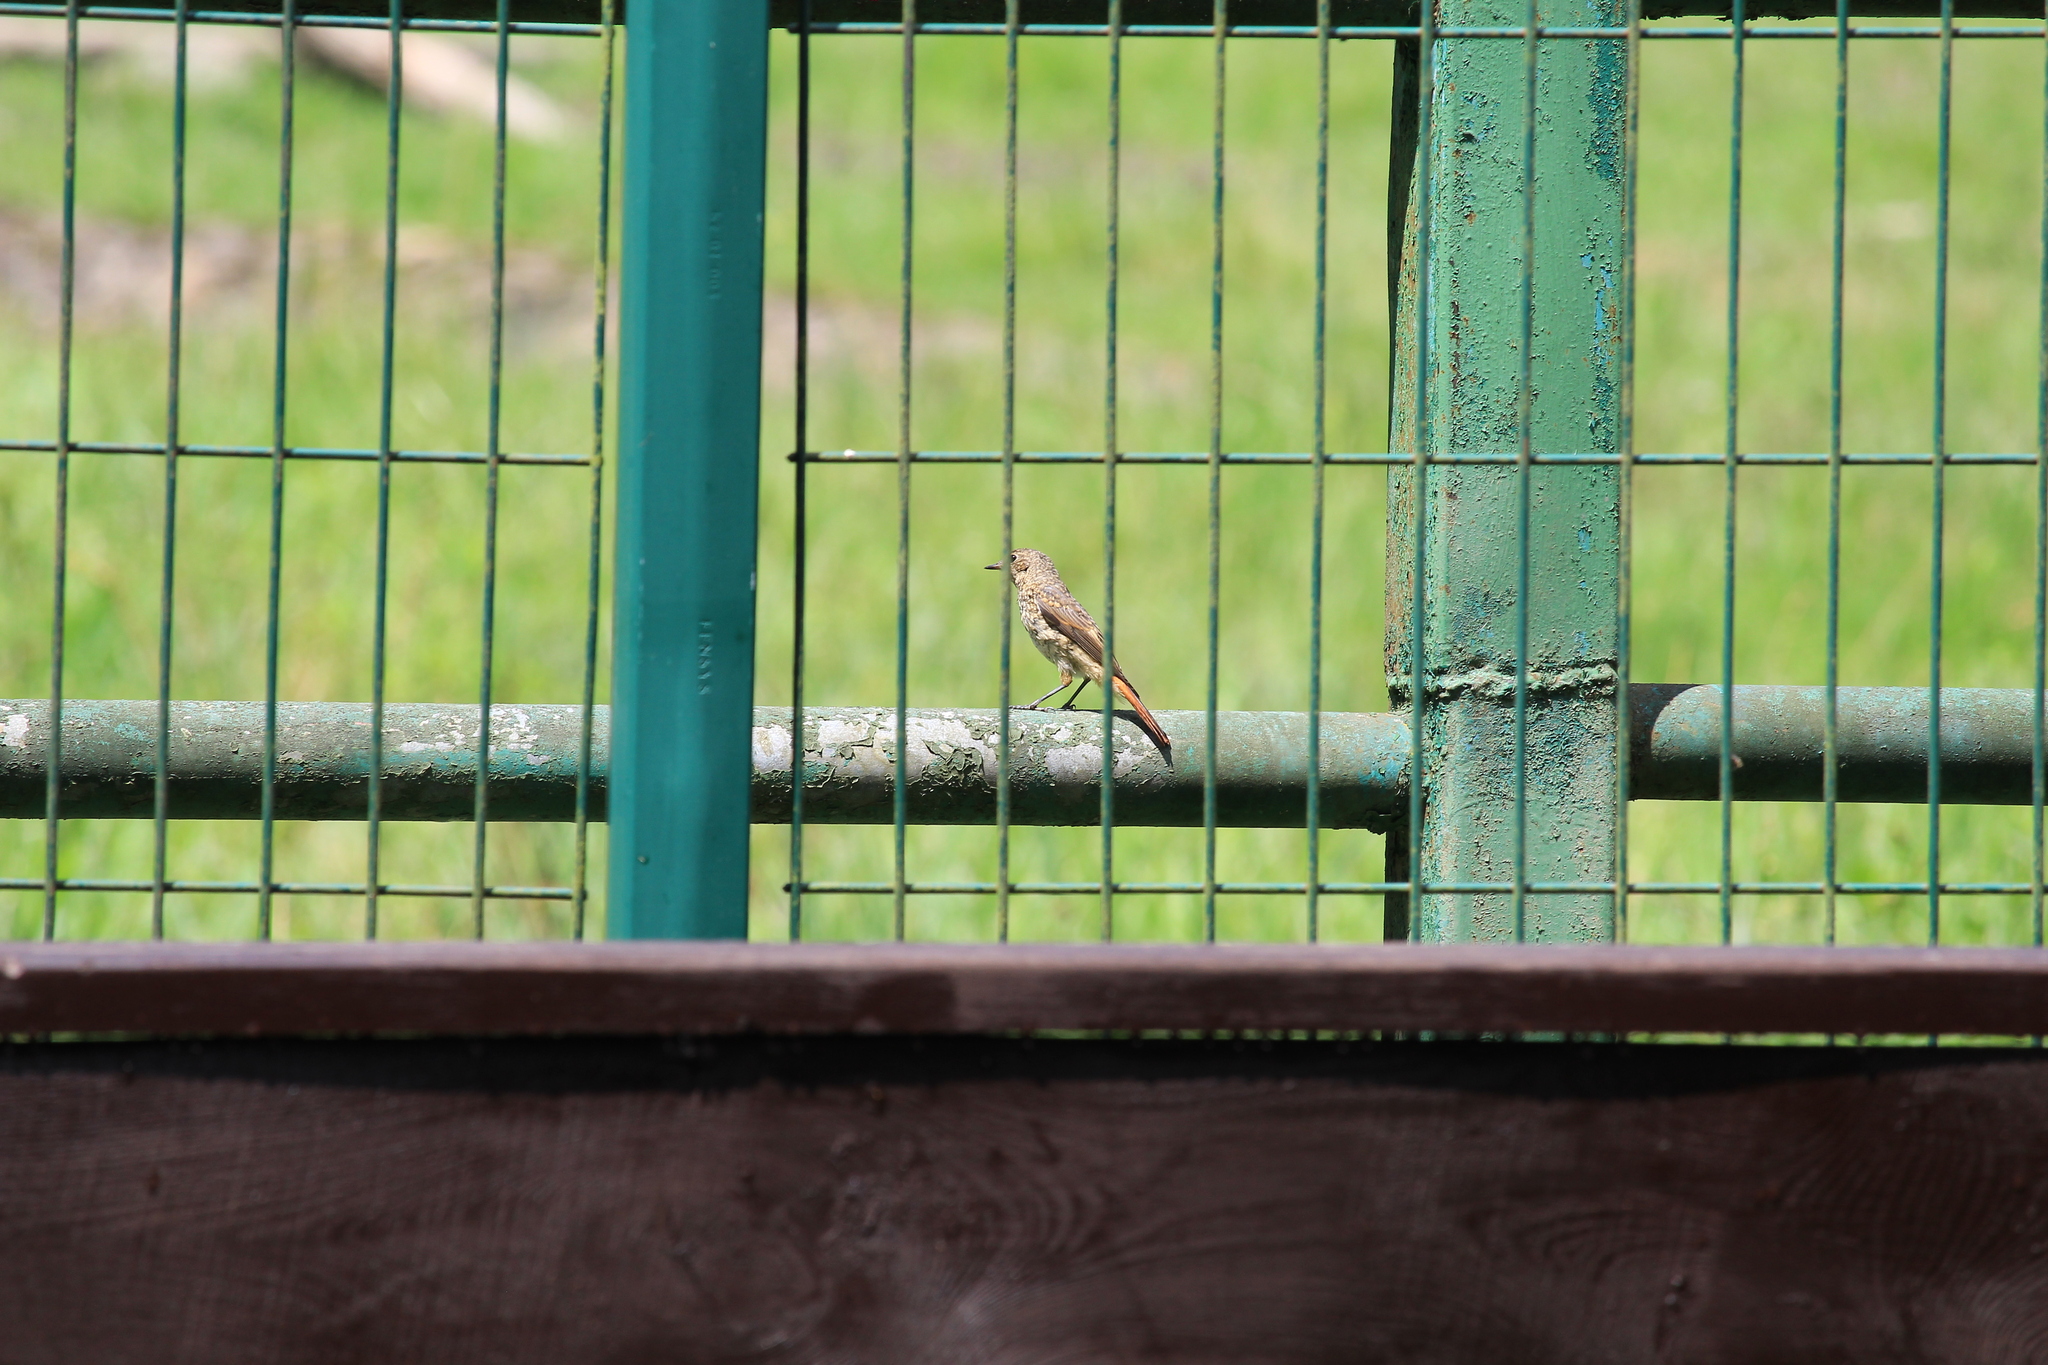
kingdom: Animalia
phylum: Chordata
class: Aves
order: Passeriformes
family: Muscicapidae
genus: Phoenicurus
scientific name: Phoenicurus phoenicurus
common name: Common redstart
